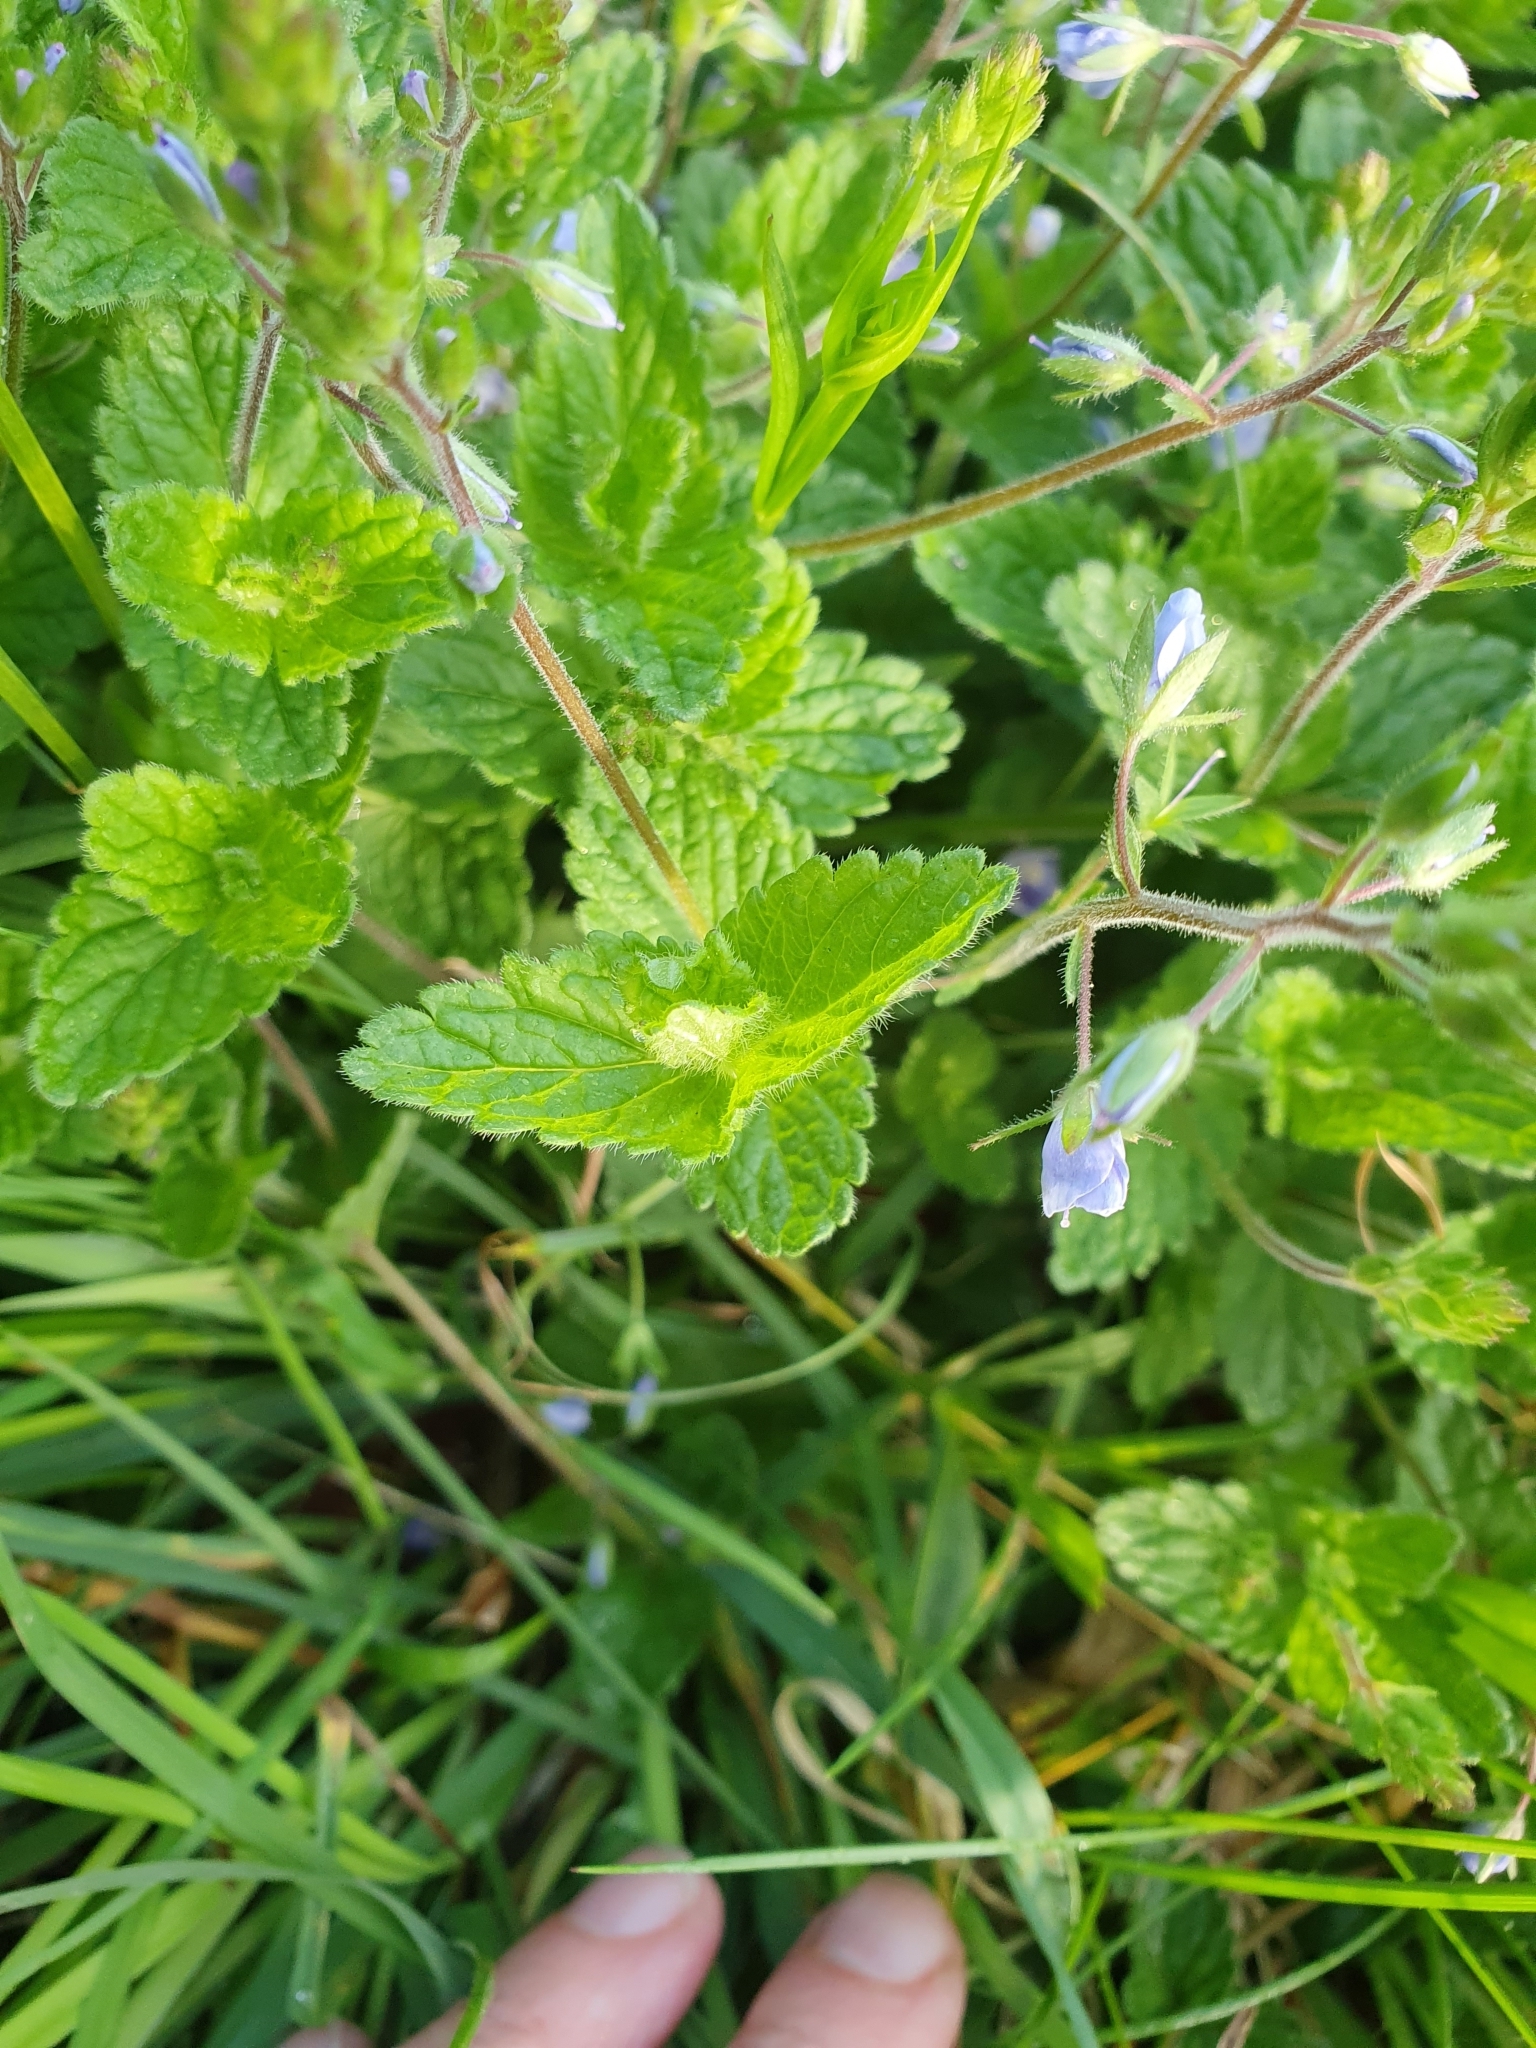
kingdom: Plantae
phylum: Tracheophyta
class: Magnoliopsida
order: Lamiales
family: Plantaginaceae
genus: Veronica
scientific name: Veronica chamaedrys
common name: Germander speedwell
